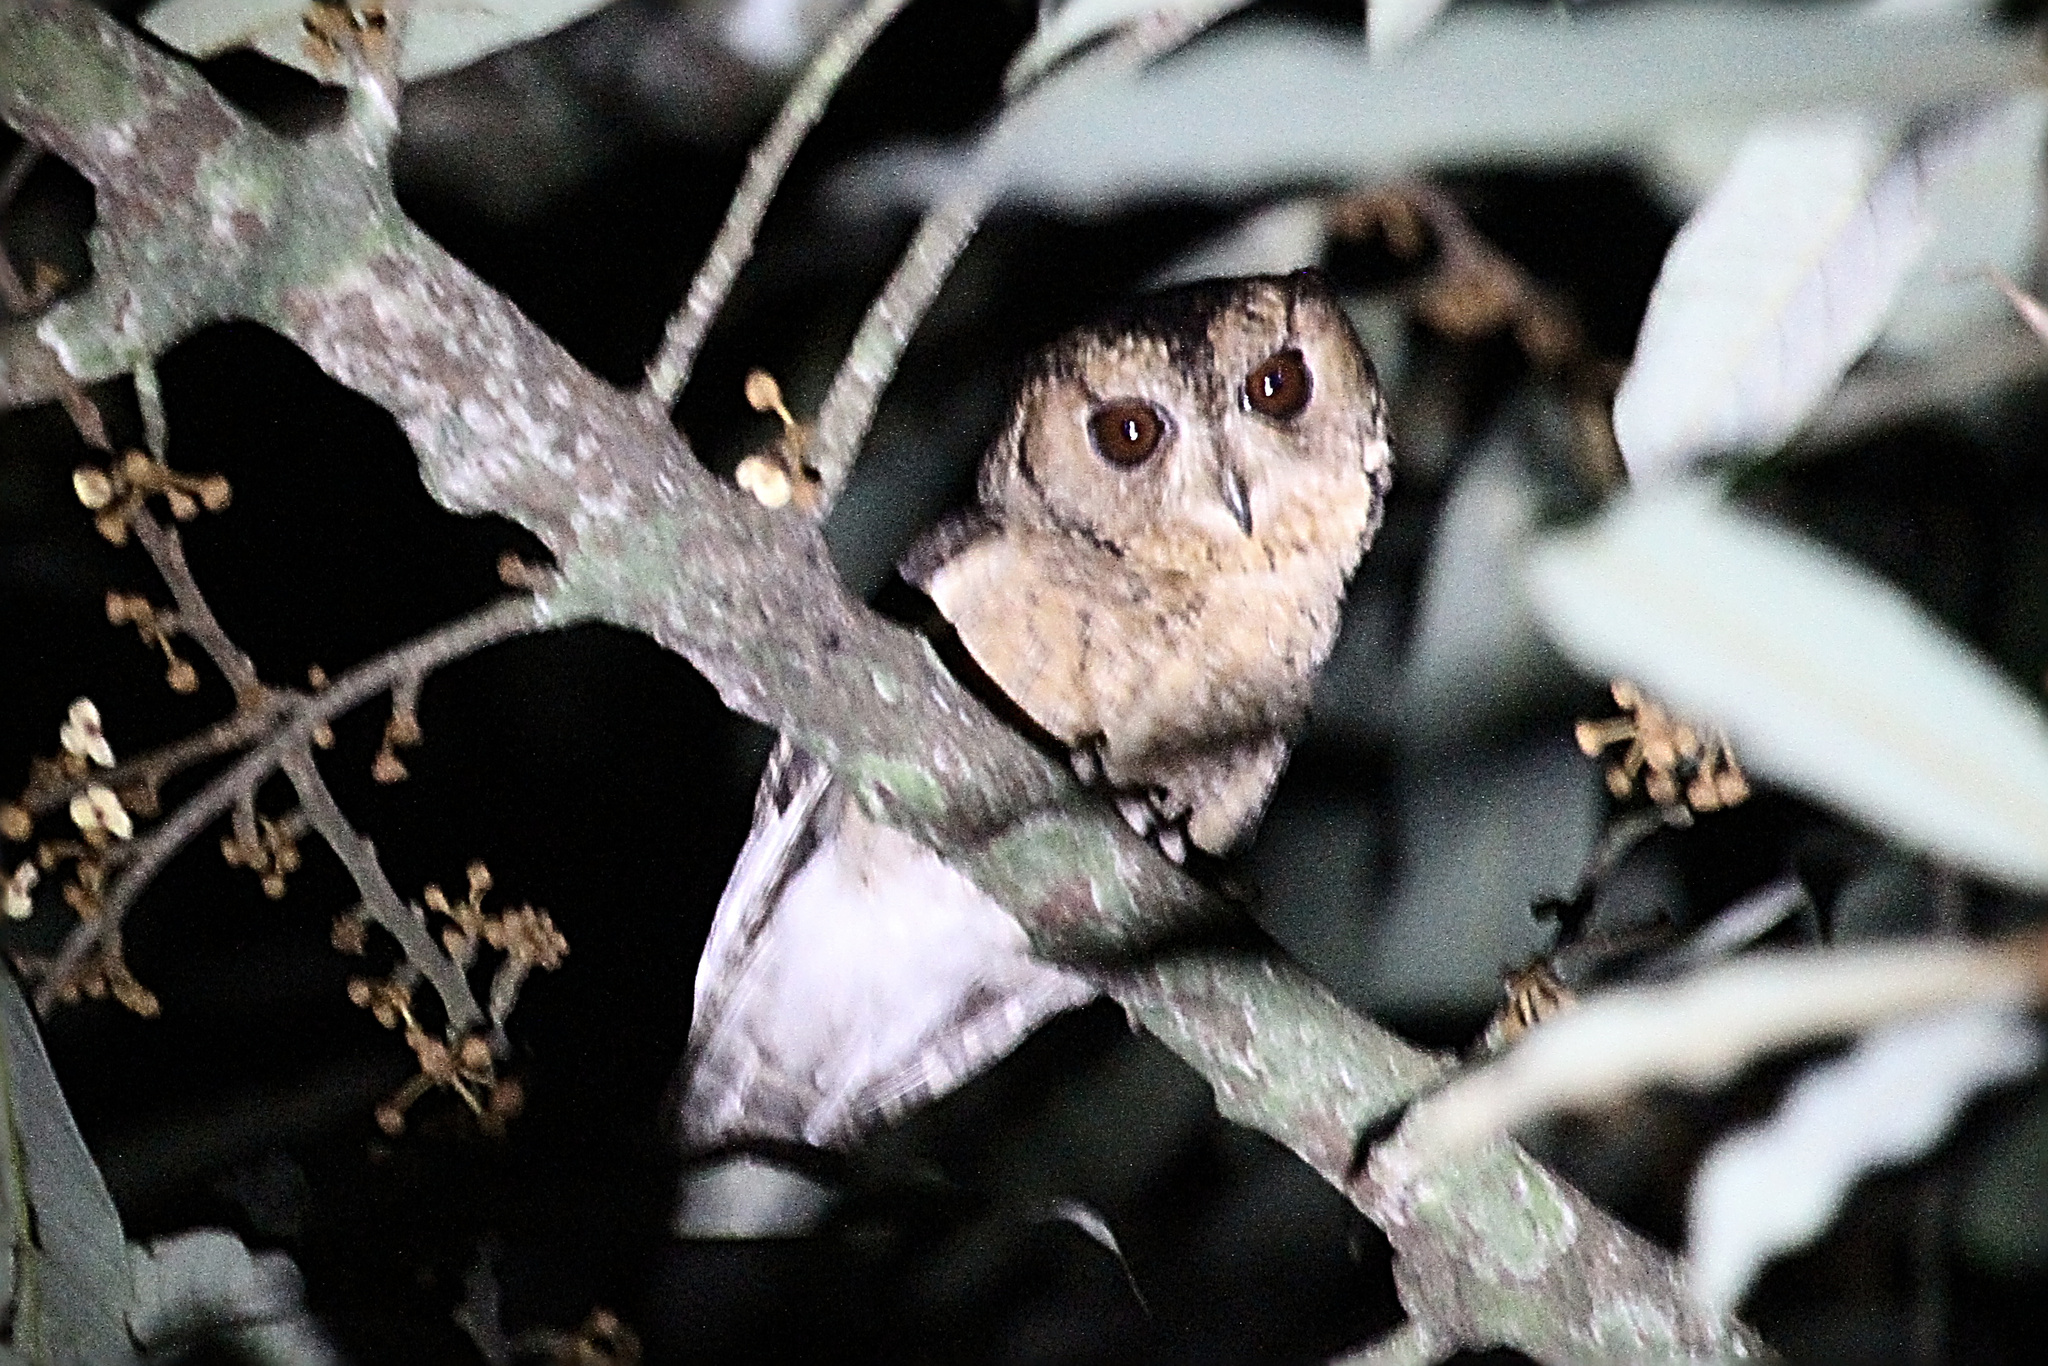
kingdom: Animalia
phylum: Chordata
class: Aves
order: Strigiformes
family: Strigidae
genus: Otus
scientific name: Otus bakkamoena
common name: Indian scops owl
